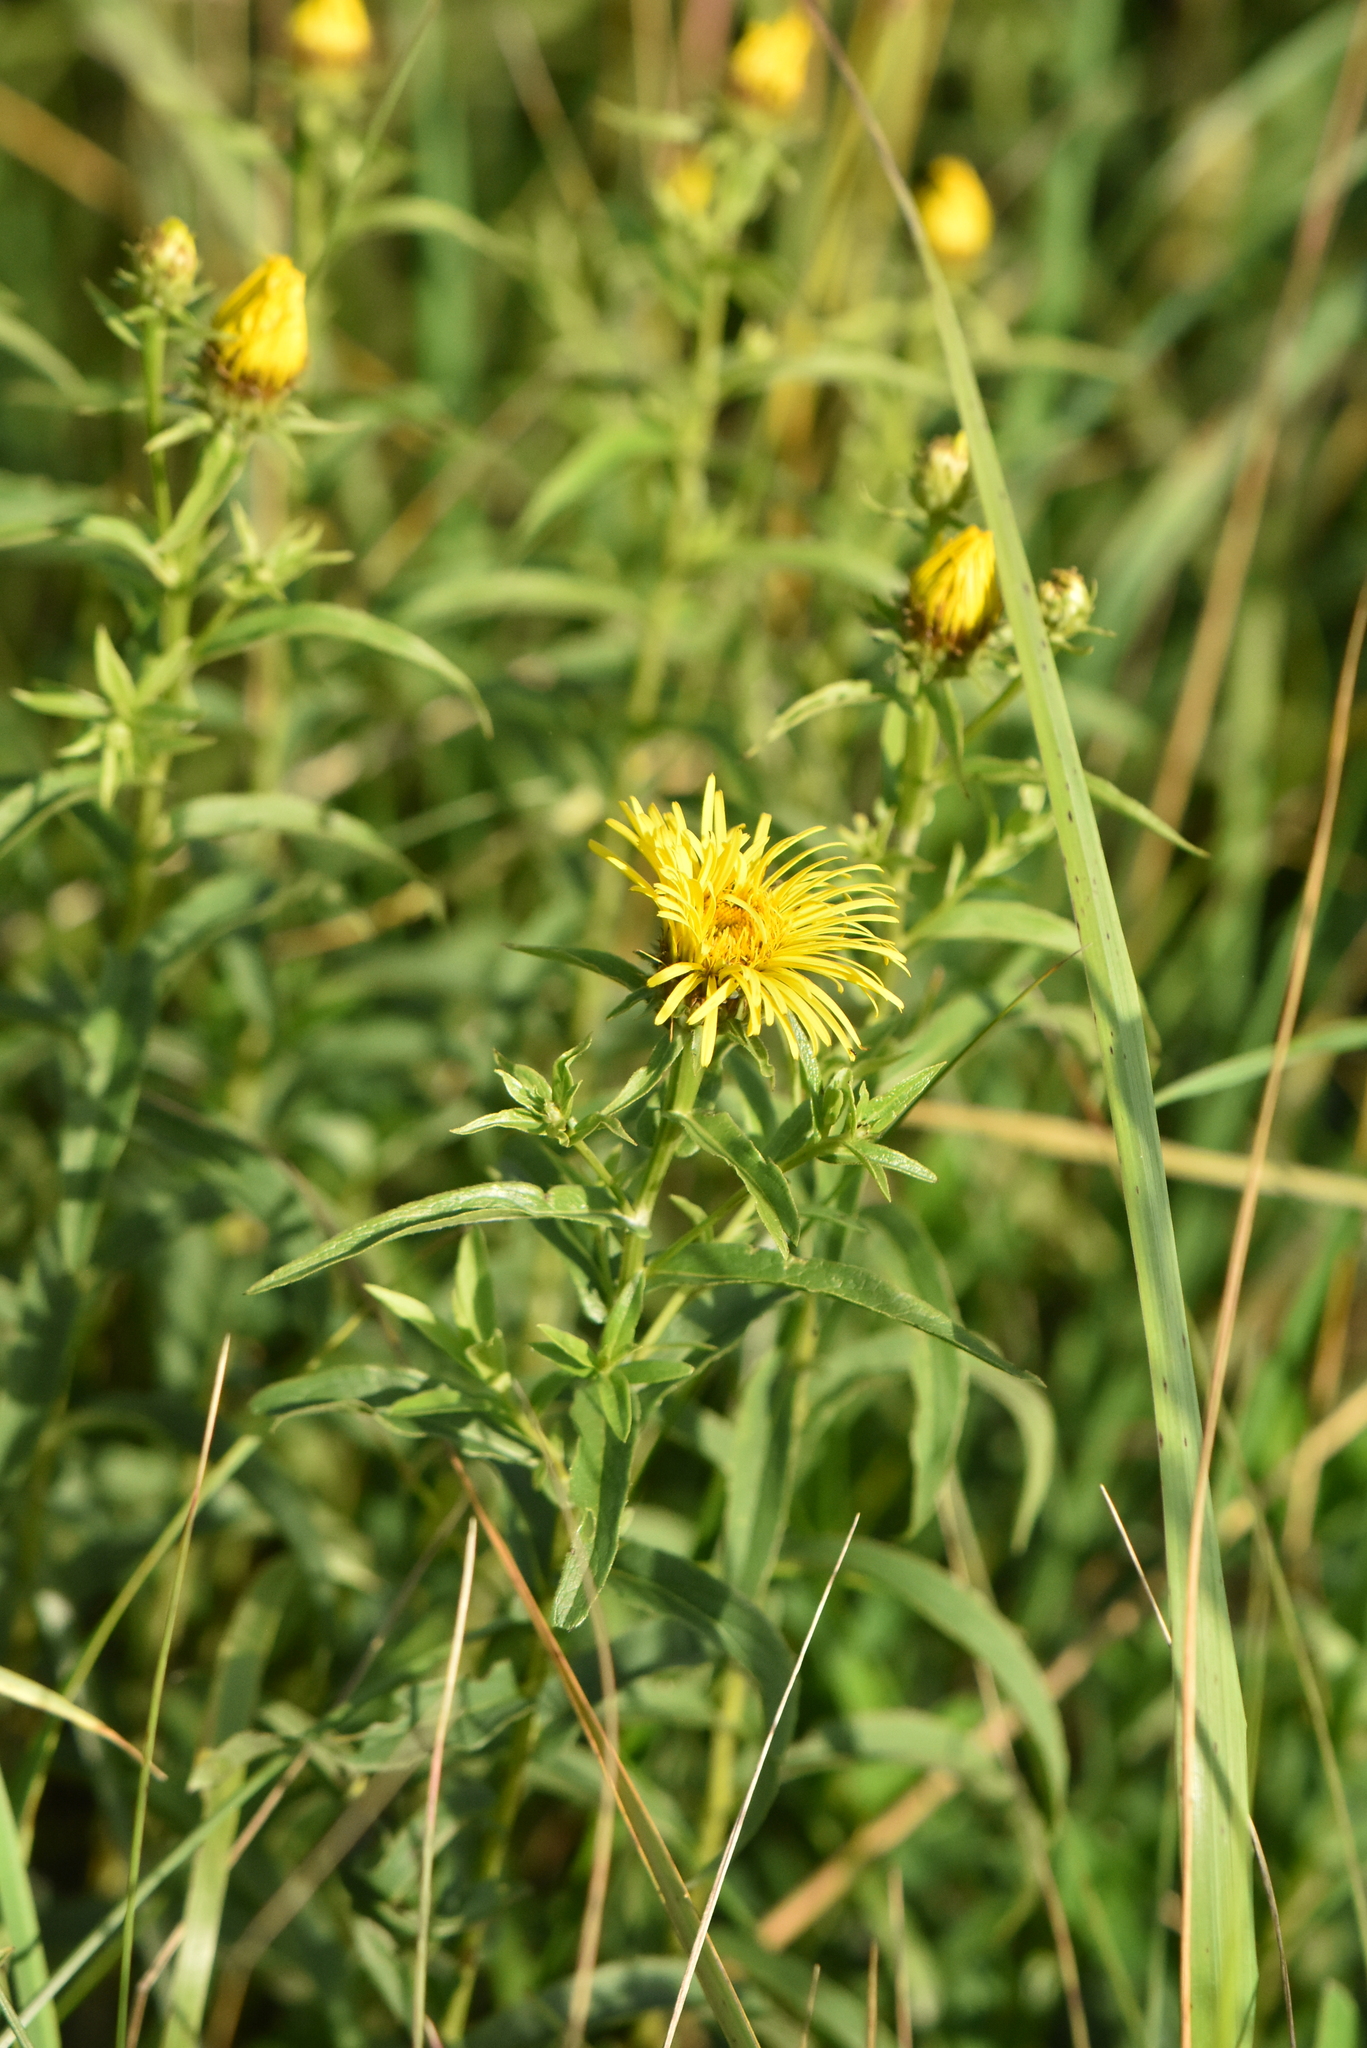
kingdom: Plantae
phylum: Tracheophyta
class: Magnoliopsida
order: Asterales
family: Asteraceae
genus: Pentanema
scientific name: Pentanema salicinum
